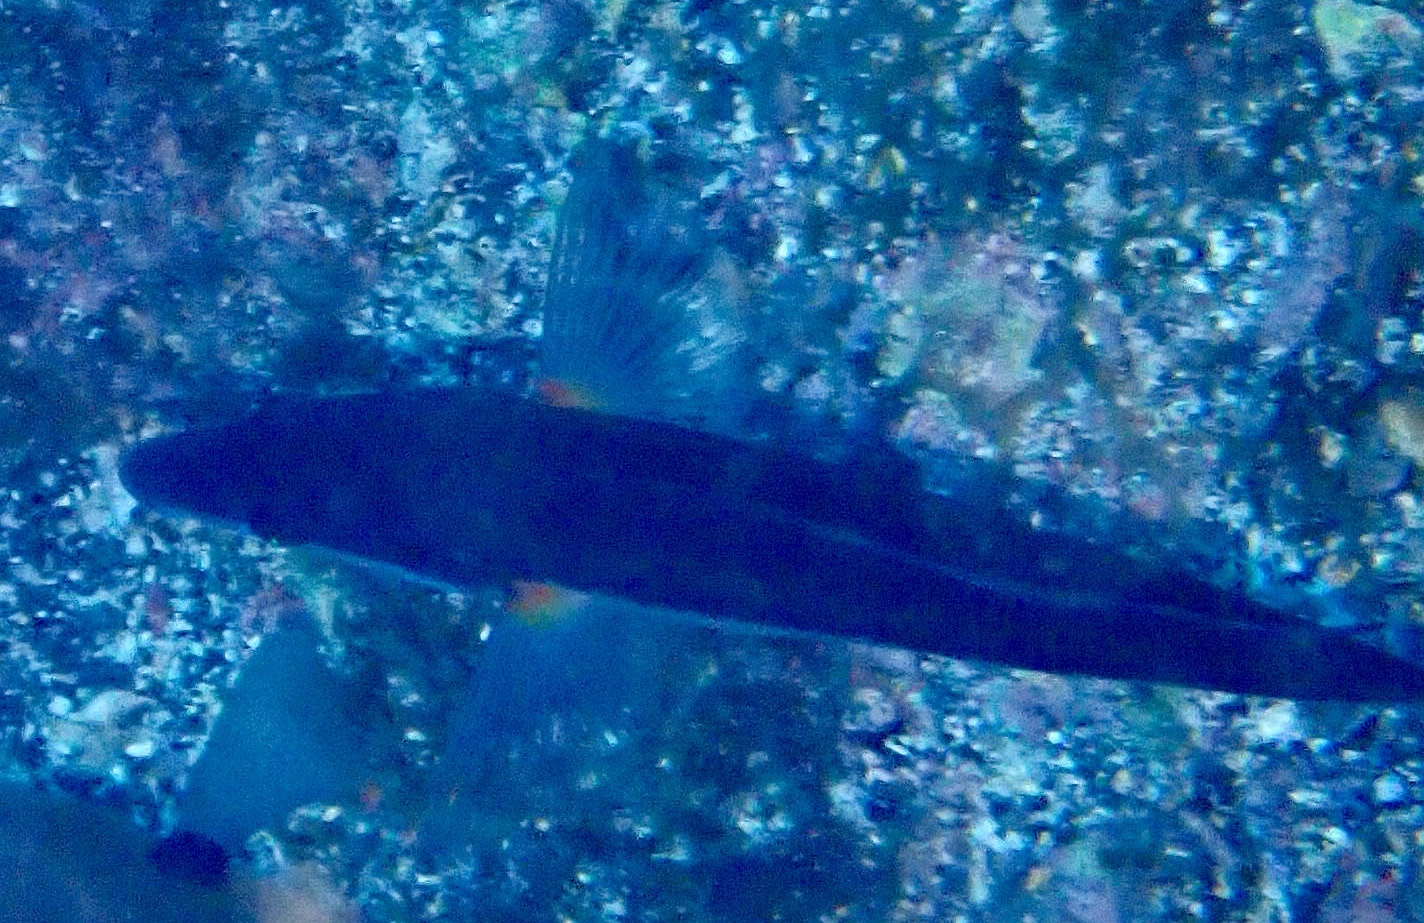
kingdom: Animalia
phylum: Chordata
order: Perciformes
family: Labridae
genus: Coris
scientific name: Coris atlantica
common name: Rainbow wrasse
